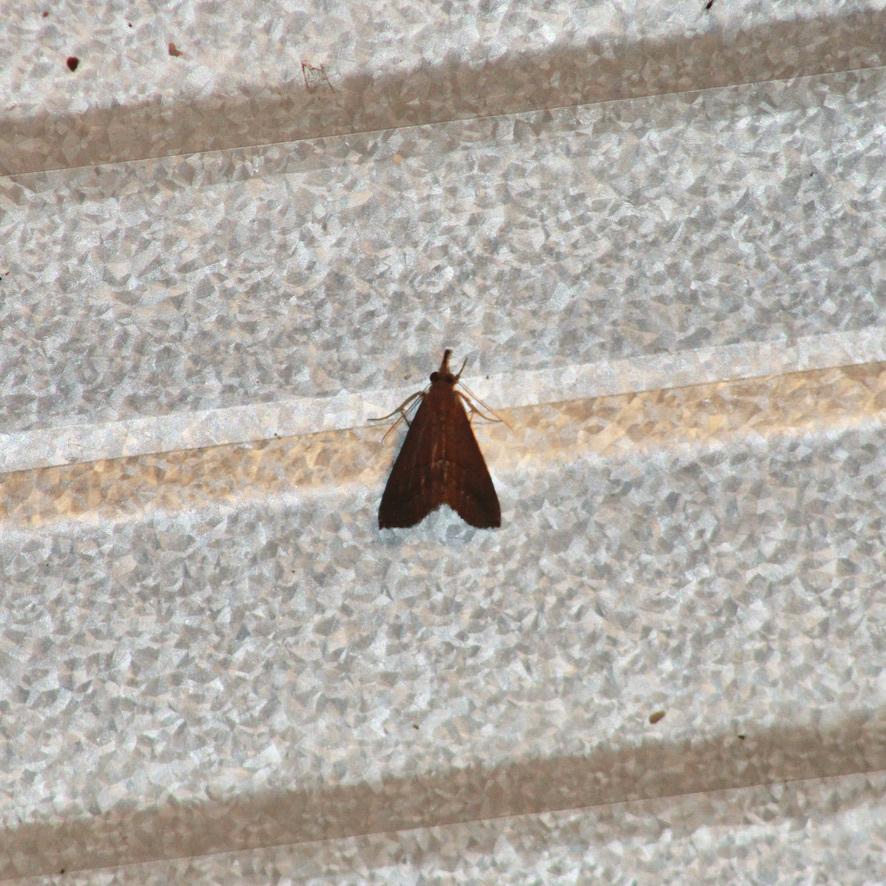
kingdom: Animalia
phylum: Arthropoda
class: Insecta
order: Lepidoptera
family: Erebidae
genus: Hypena
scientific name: Hypena porrectalis
